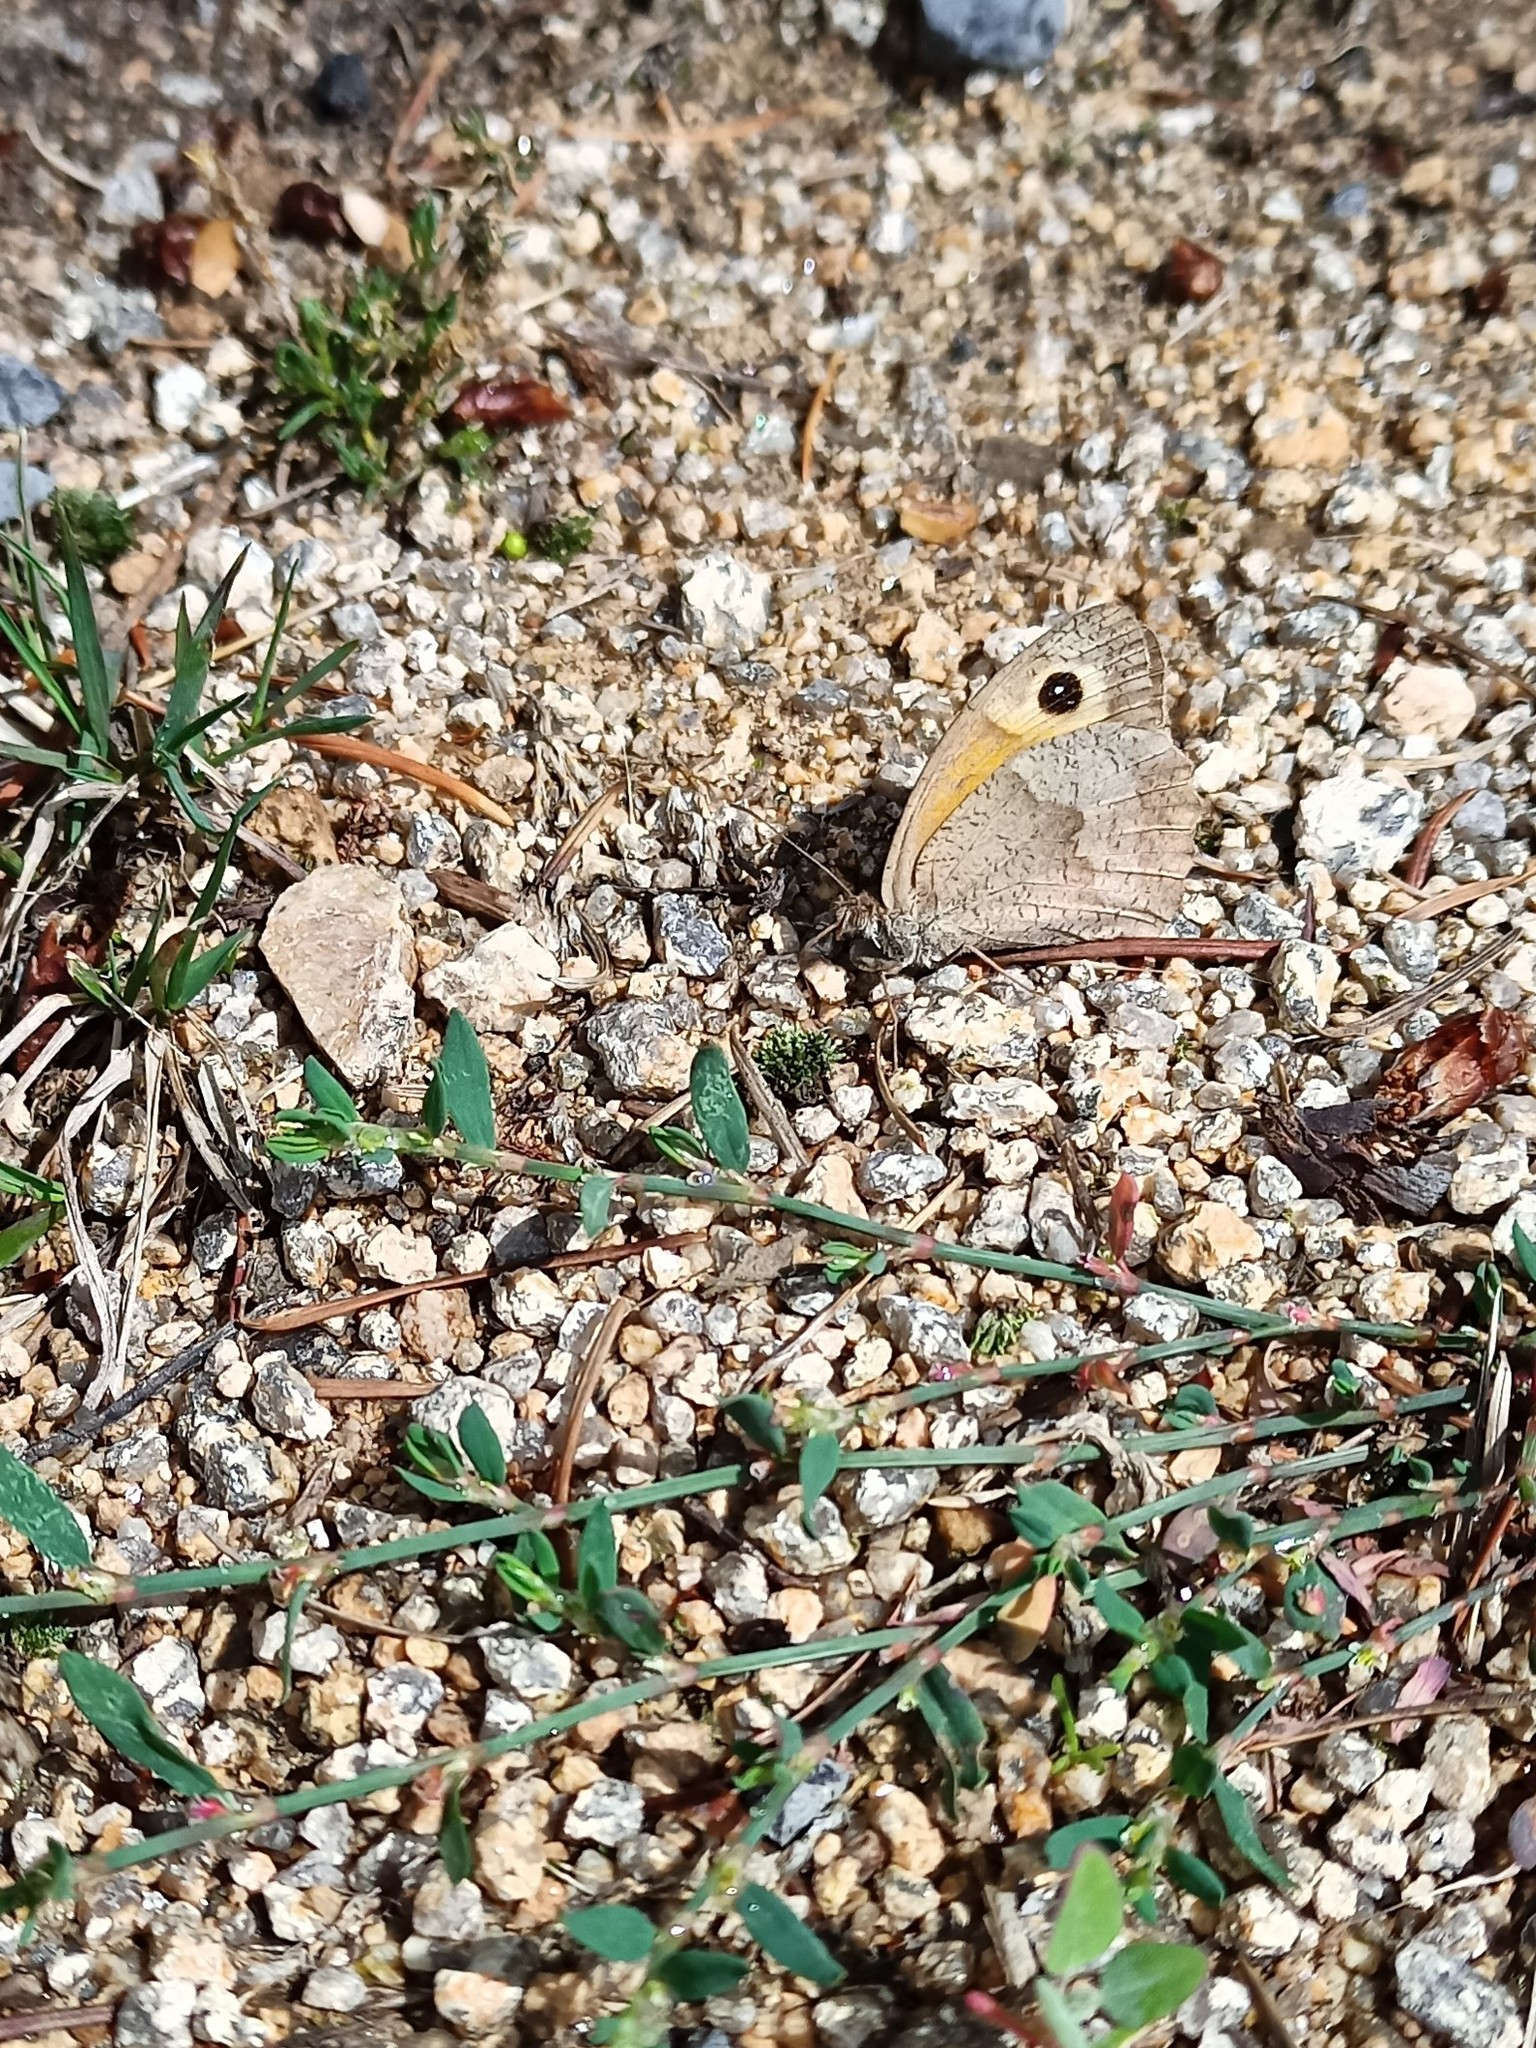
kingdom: Animalia
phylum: Arthropoda
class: Insecta
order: Lepidoptera
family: Nymphalidae
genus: Maniola
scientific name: Maniola jurtina
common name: Meadow brown
